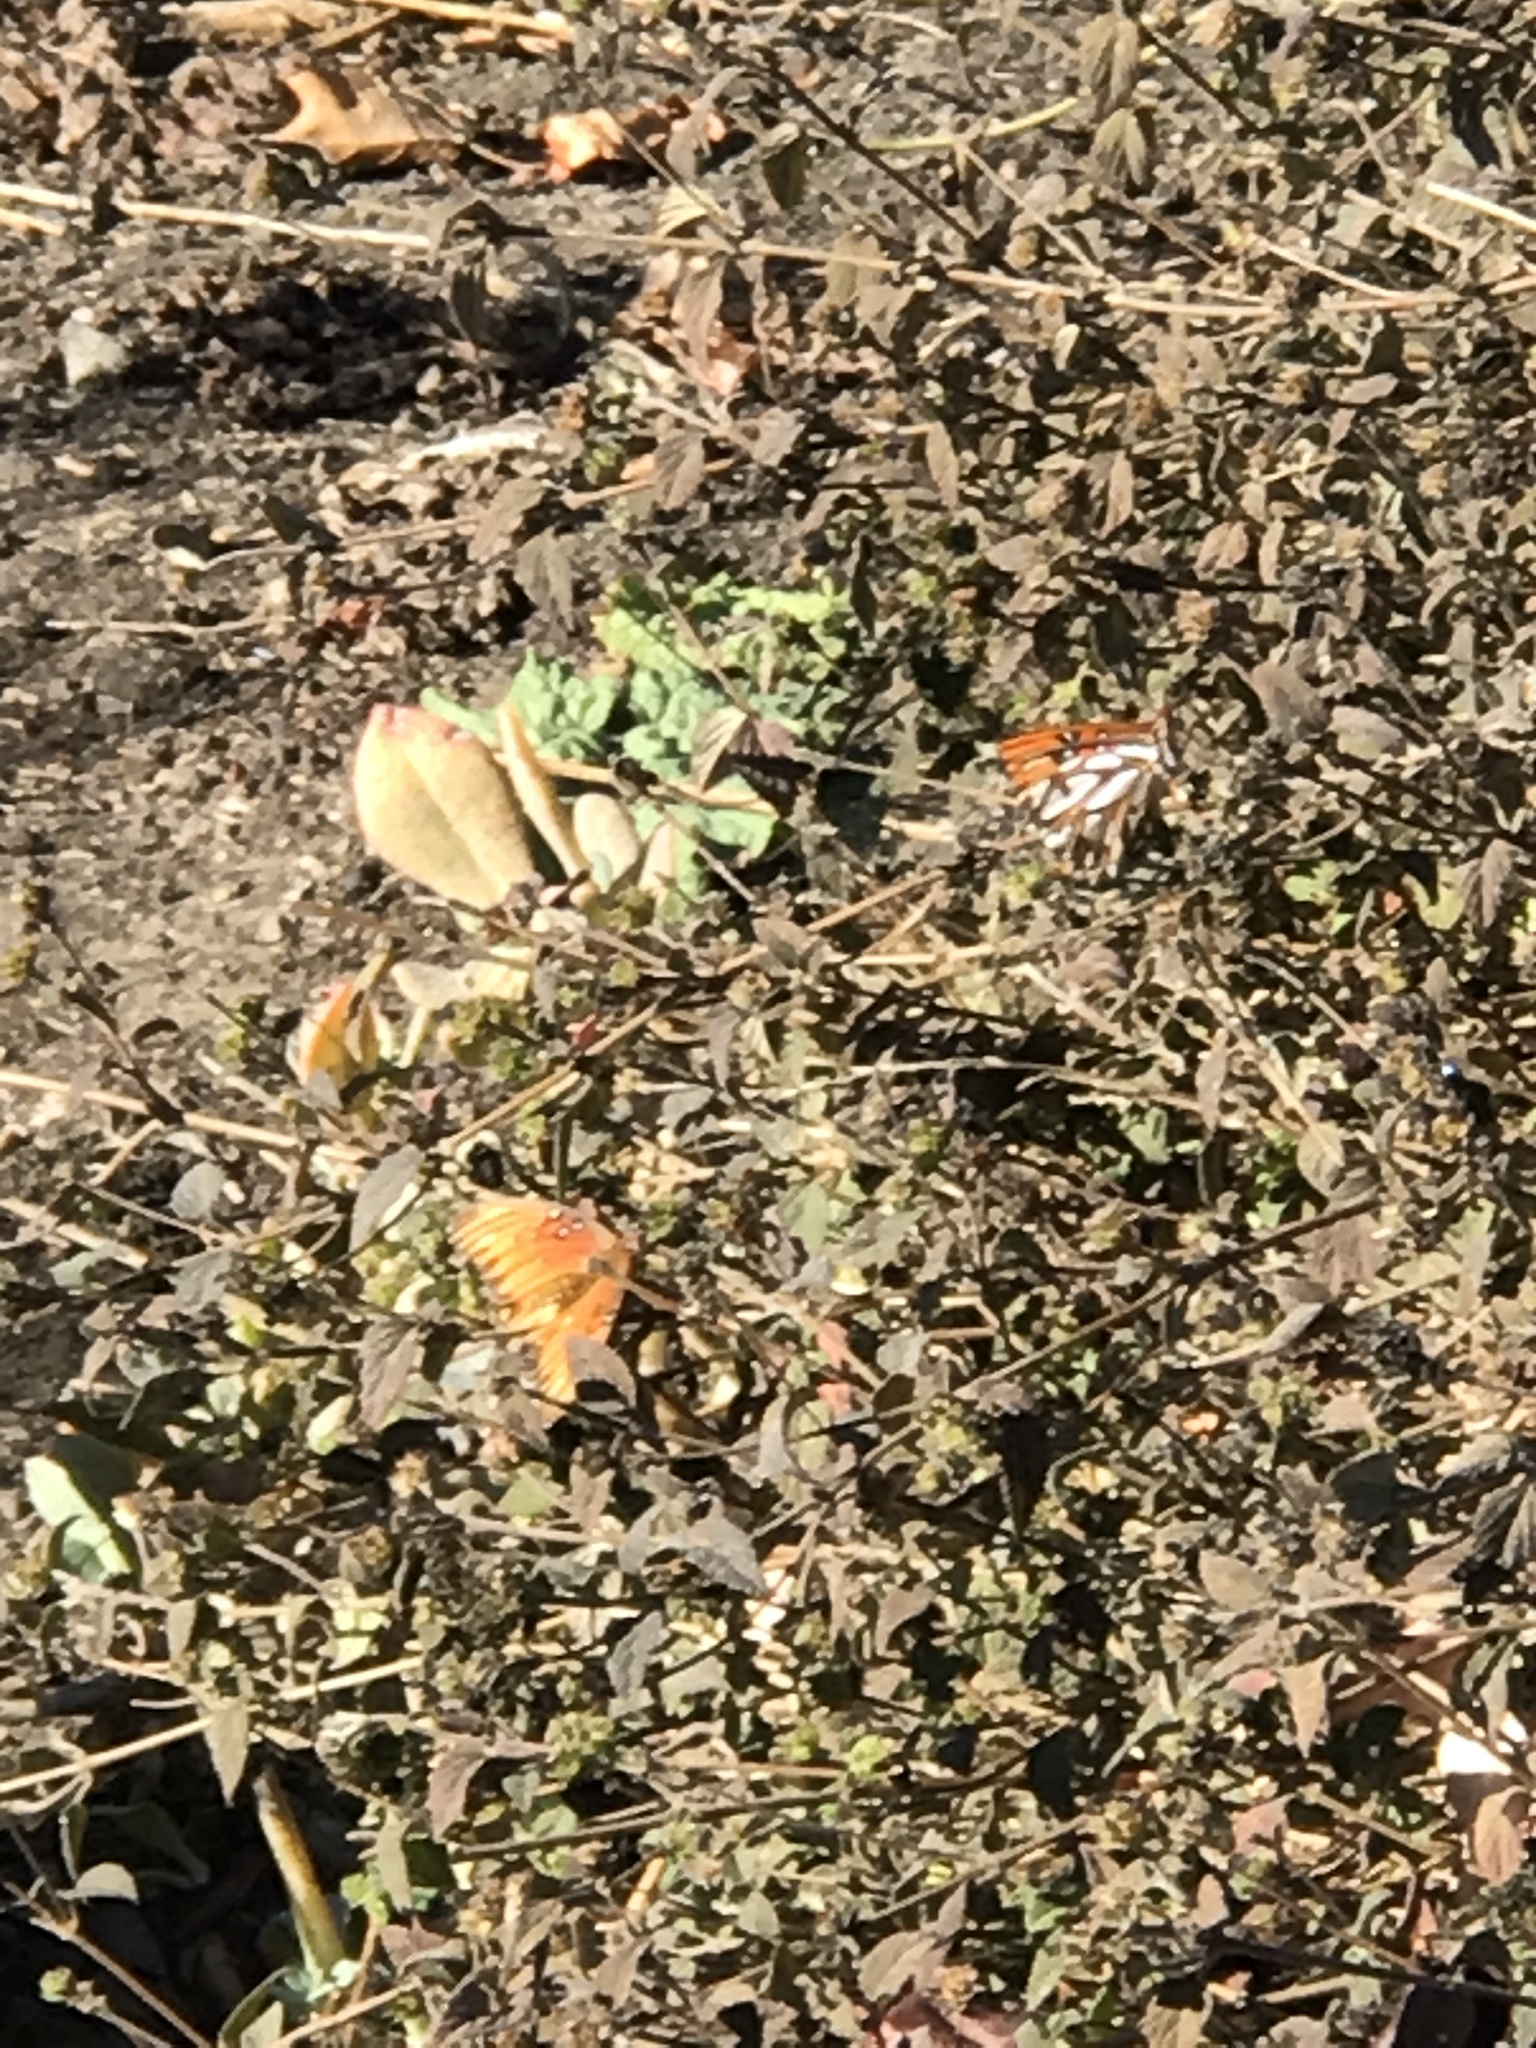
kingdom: Animalia
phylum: Arthropoda
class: Insecta
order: Lepidoptera
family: Nymphalidae
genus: Dione
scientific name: Dione vanillae
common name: Gulf fritillary
